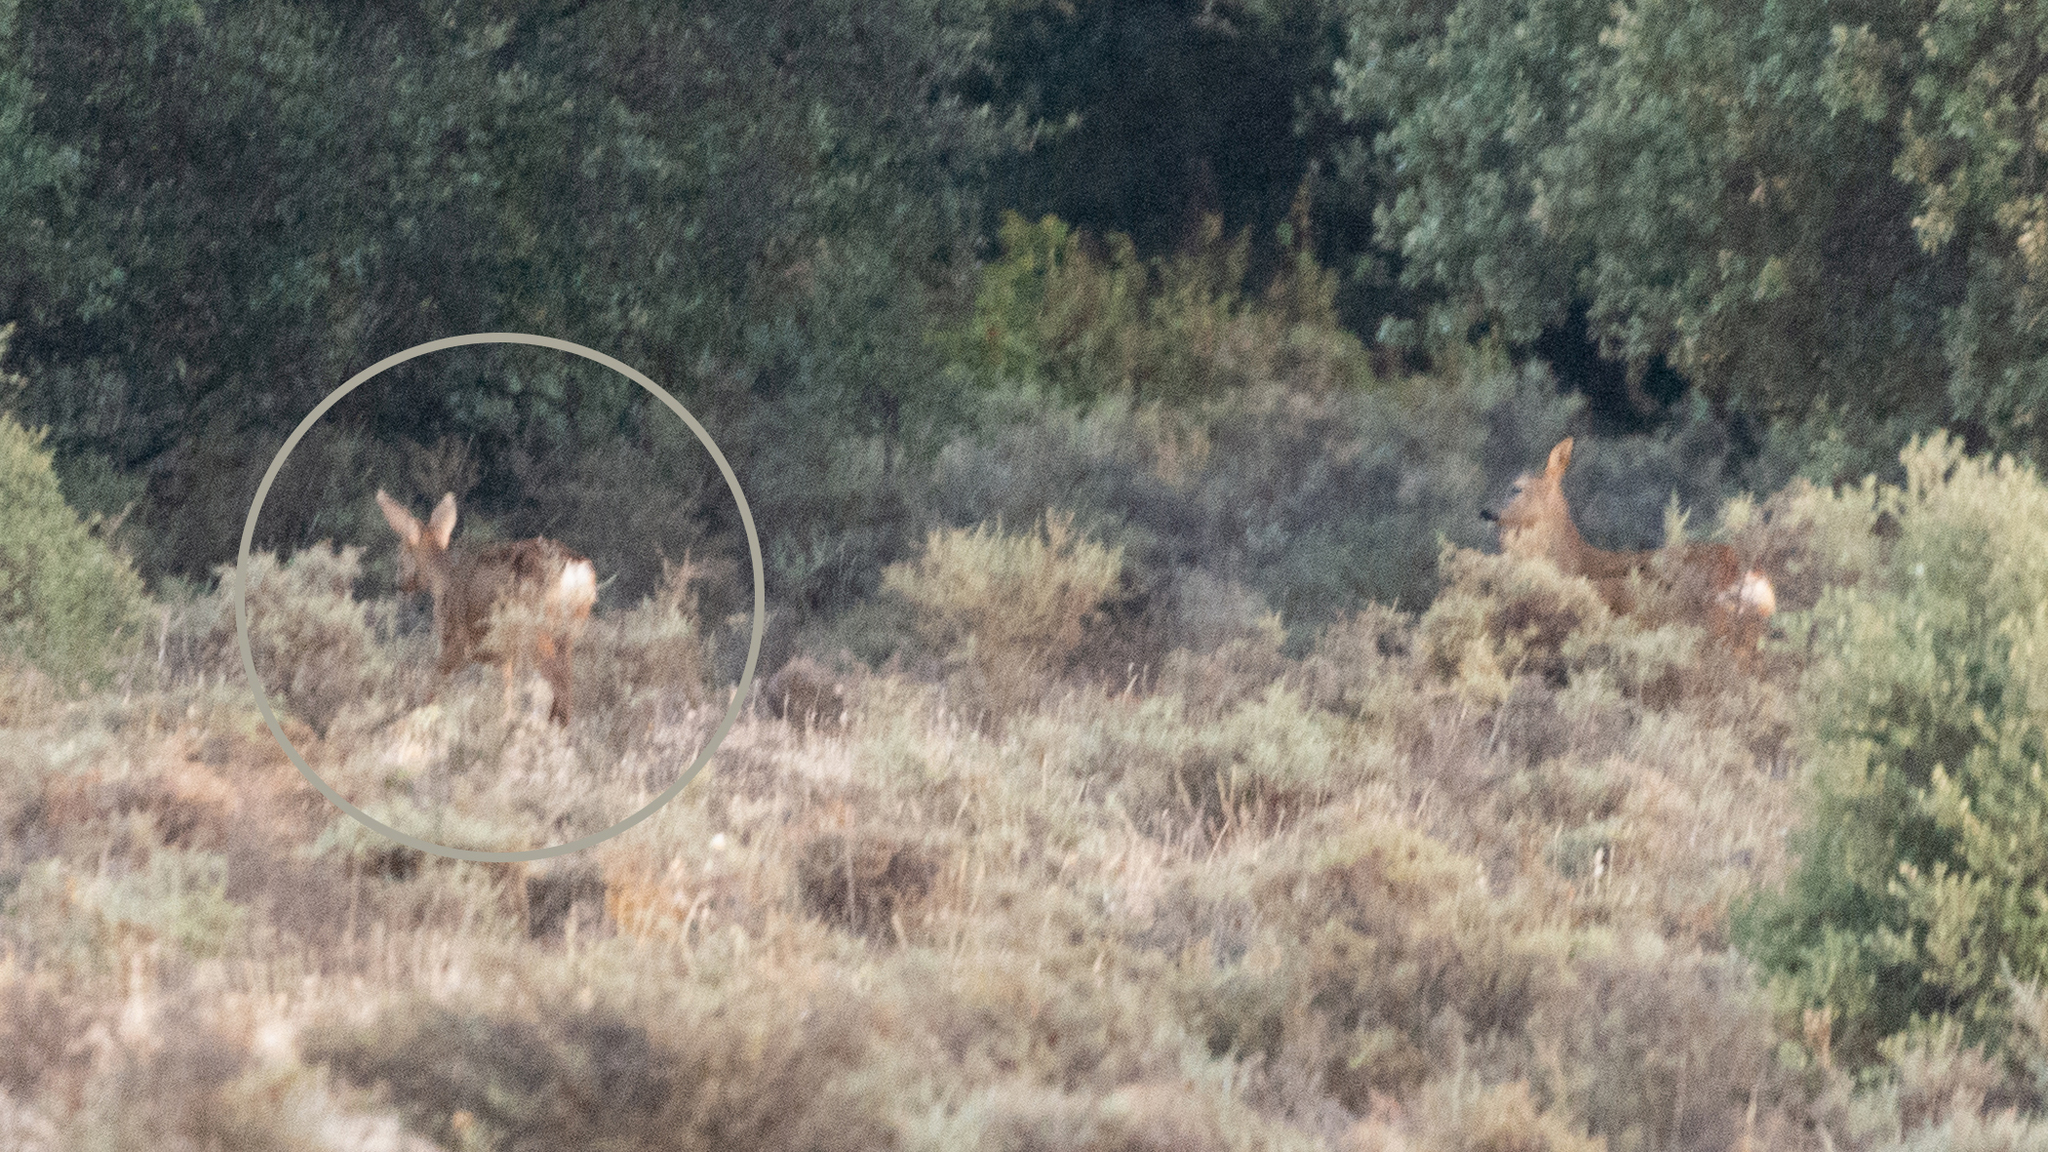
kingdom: Animalia
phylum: Chordata
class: Mammalia
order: Artiodactyla
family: Cervidae
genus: Capreolus
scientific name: Capreolus capreolus
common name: Western roe deer
